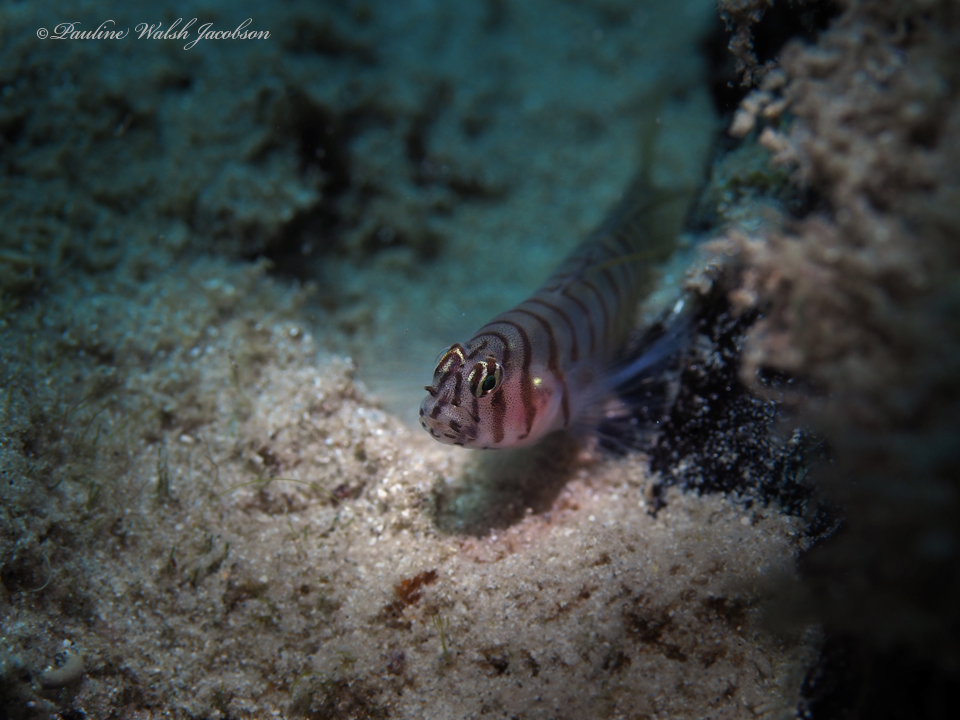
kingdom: Animalia
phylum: Chordata
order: Perciformes
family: Gobiidae
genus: Tigrigobius
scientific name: Tigrigobius macrodon
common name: Tiger goby
